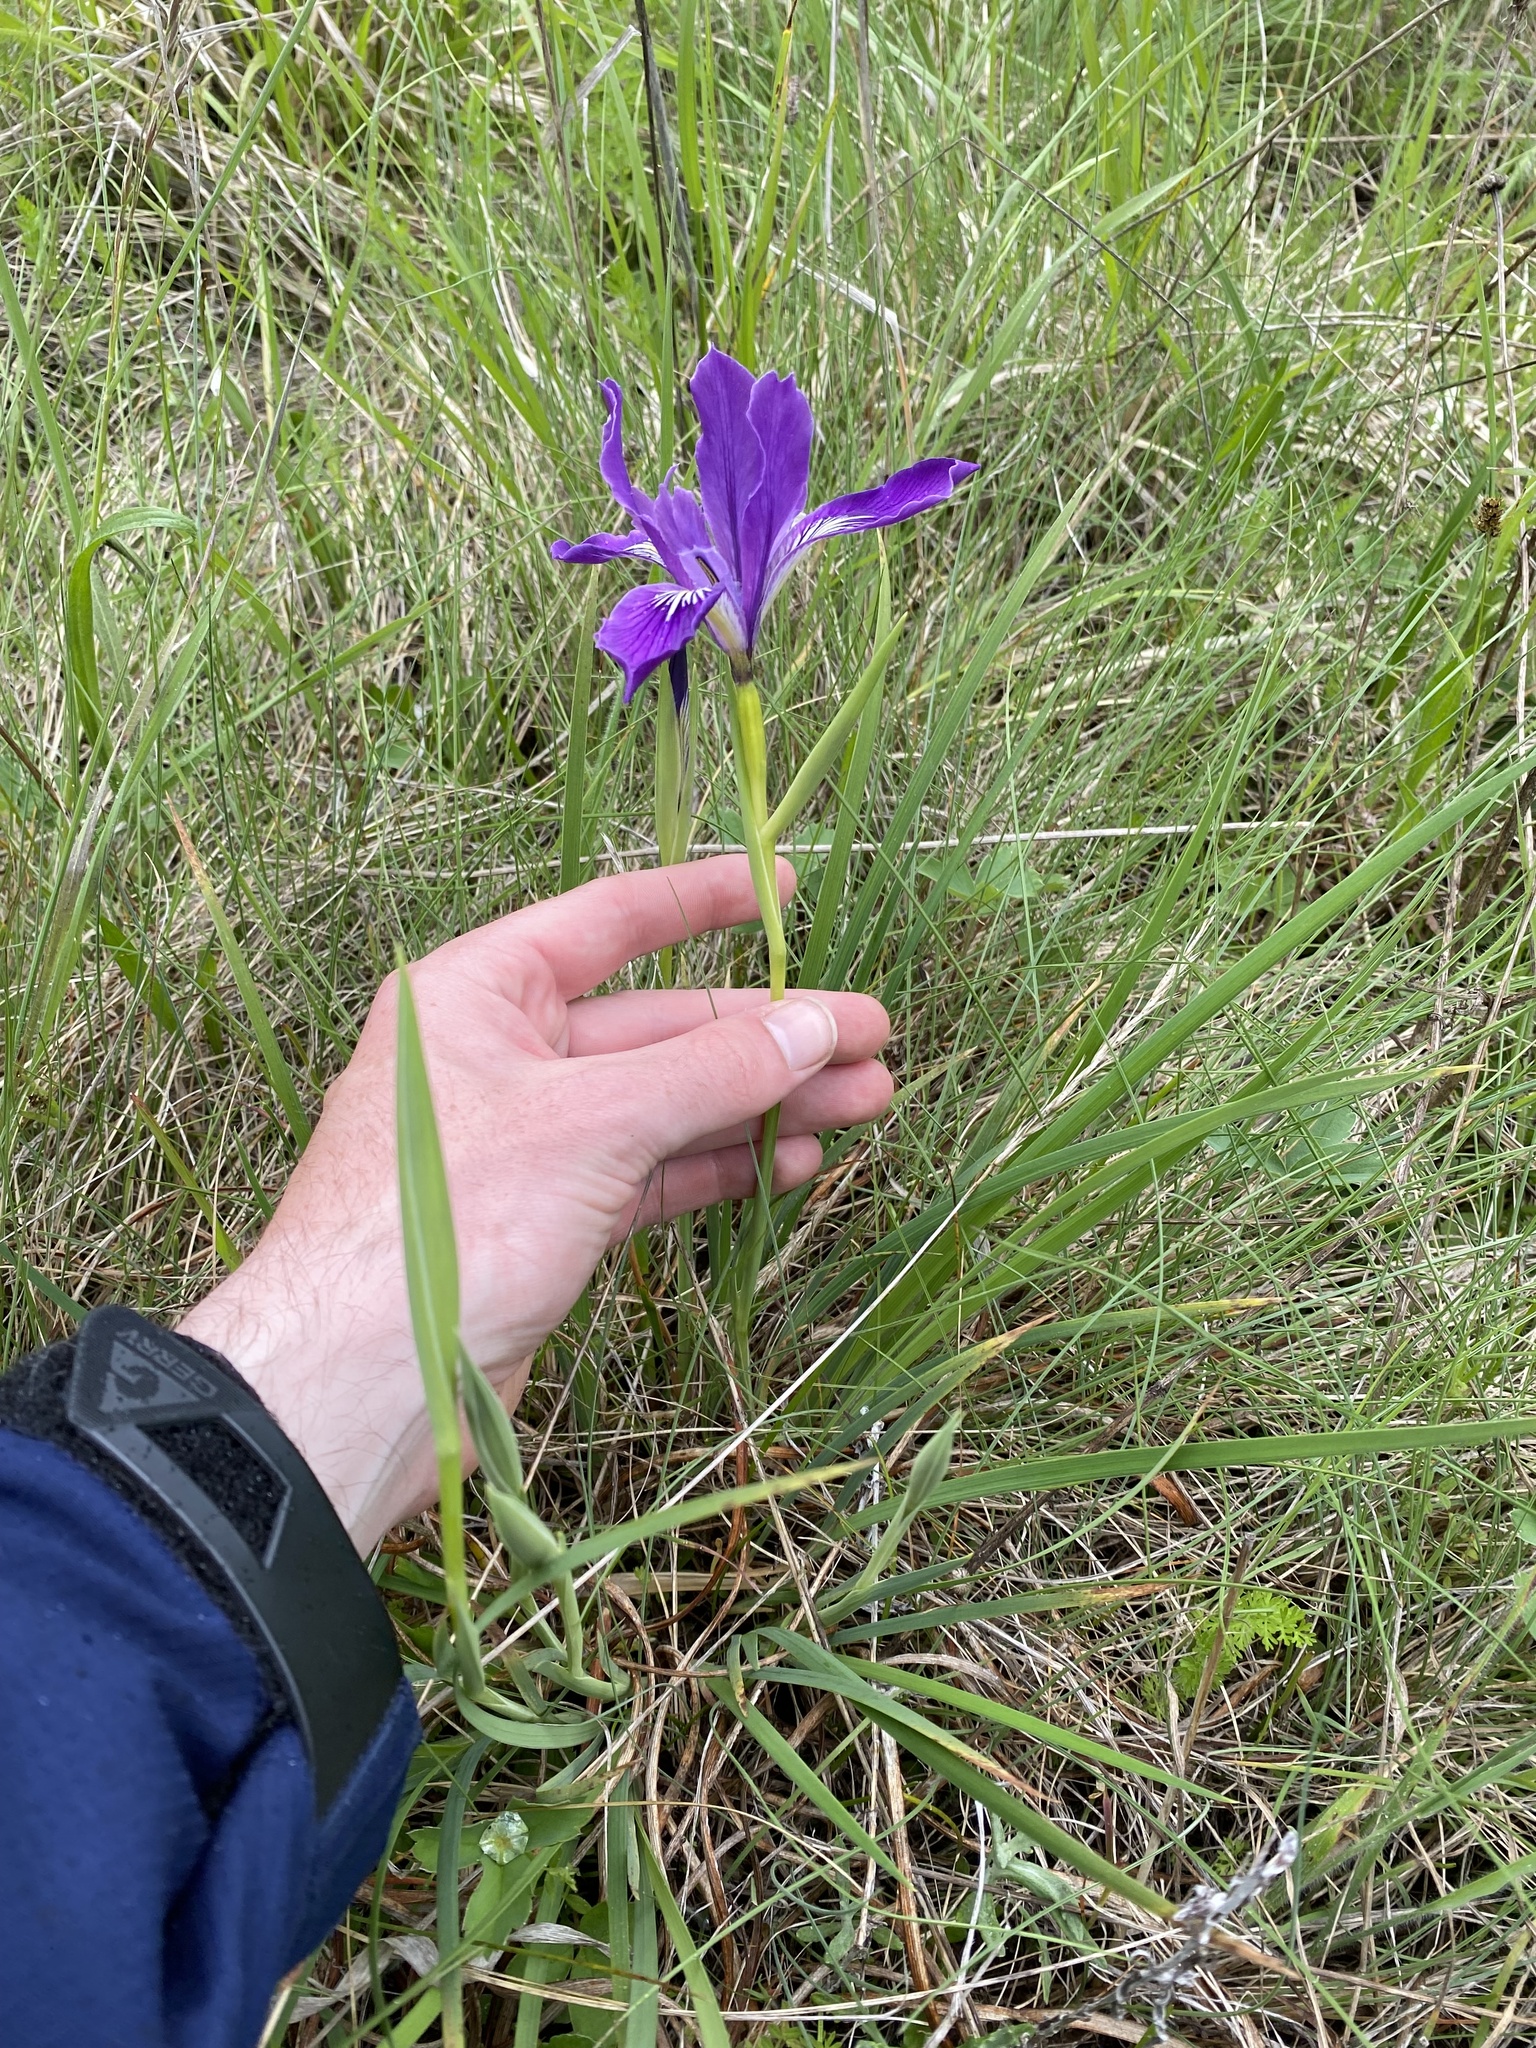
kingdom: Plantae
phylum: Tracheophyta
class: Liliopsida
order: Asparagales
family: Iridaceae
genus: Iris
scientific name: Iris tenax
